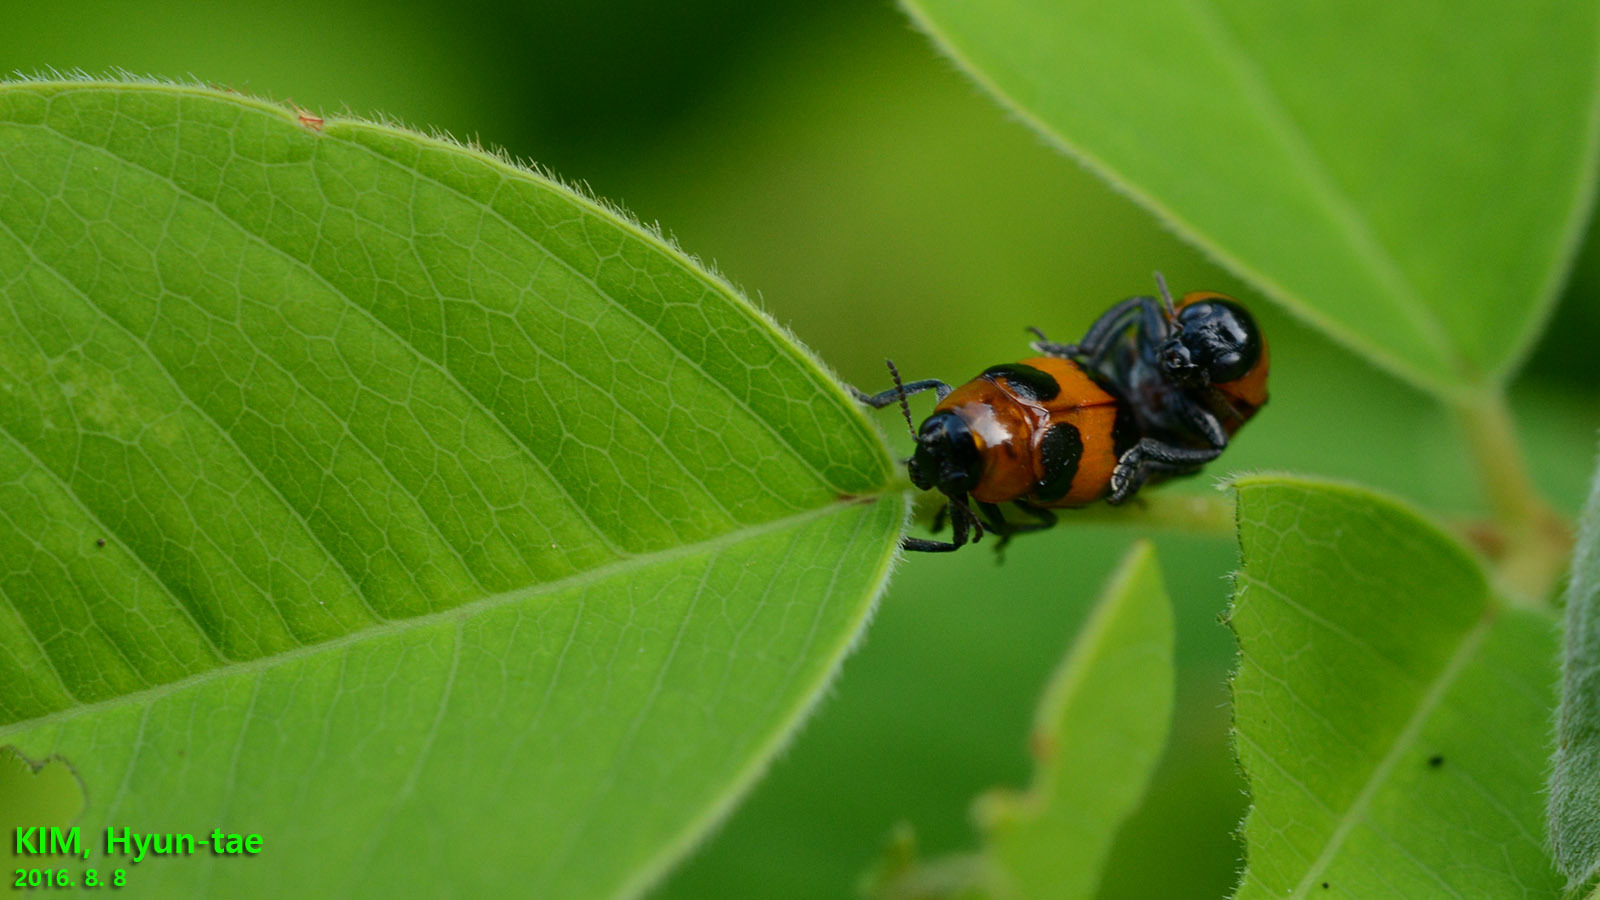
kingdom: Animalia
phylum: Arthropoda
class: Insecta
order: Coleoptera
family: Chrysomelidae
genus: Physosmaragdina
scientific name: Physosmaragdina nigrifrons
